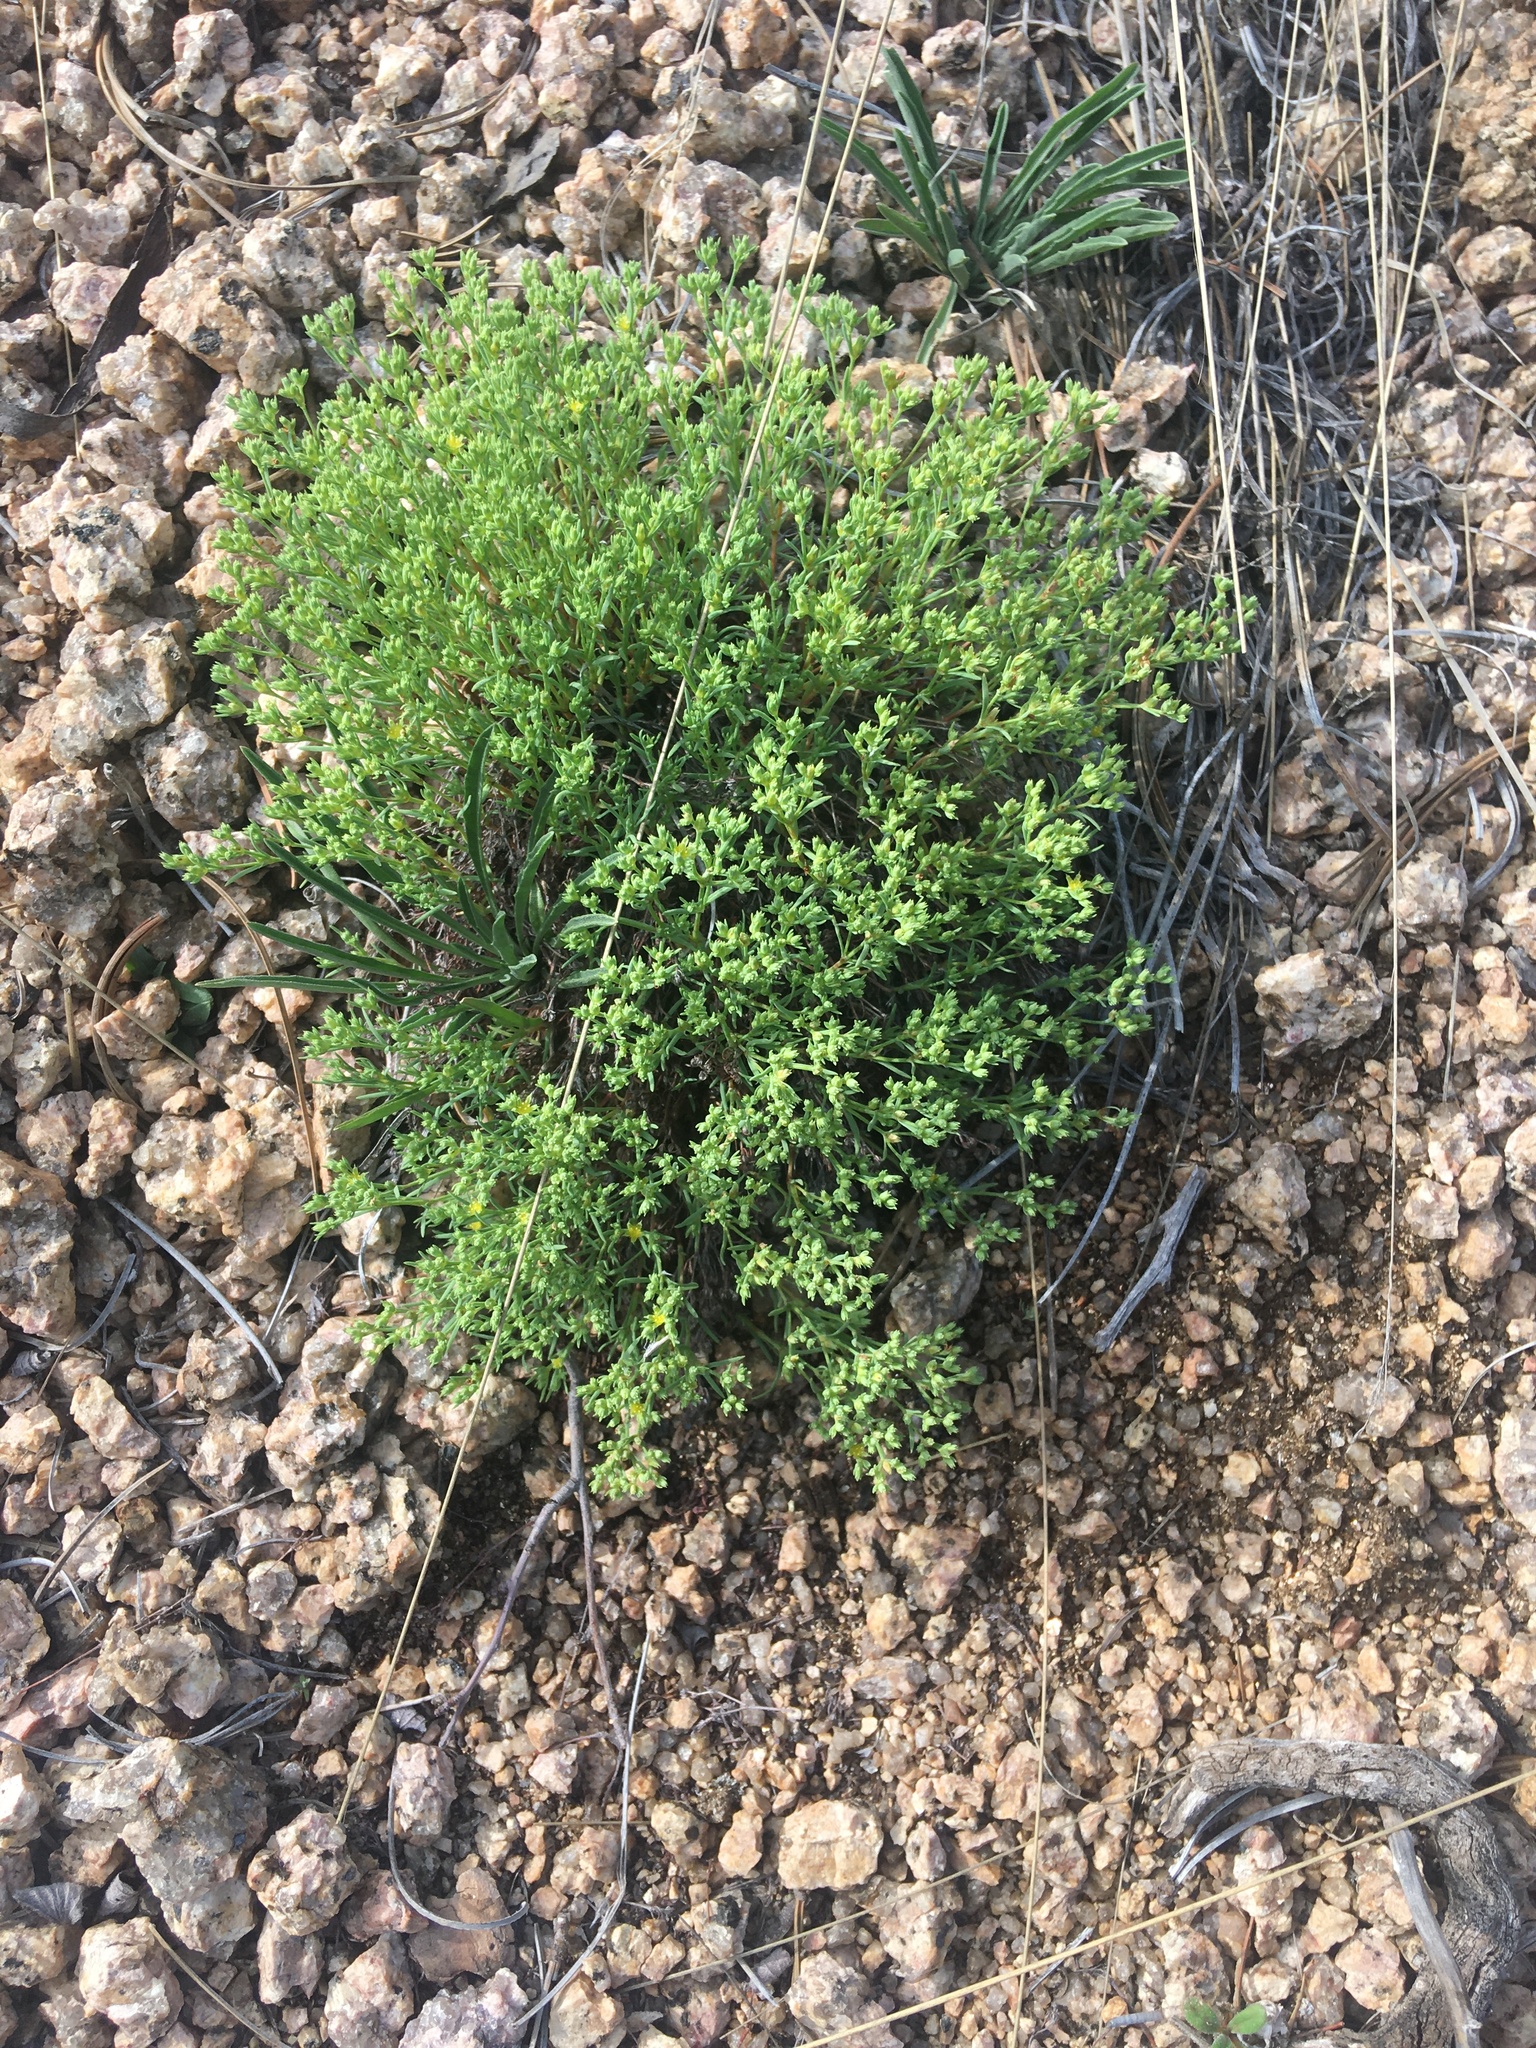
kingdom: Plantae
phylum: Tracheophyta
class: Magnoliopsida
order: Caryophyllales
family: Caryophyllaceae
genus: Paronychia
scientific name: Paronychia jamesii
